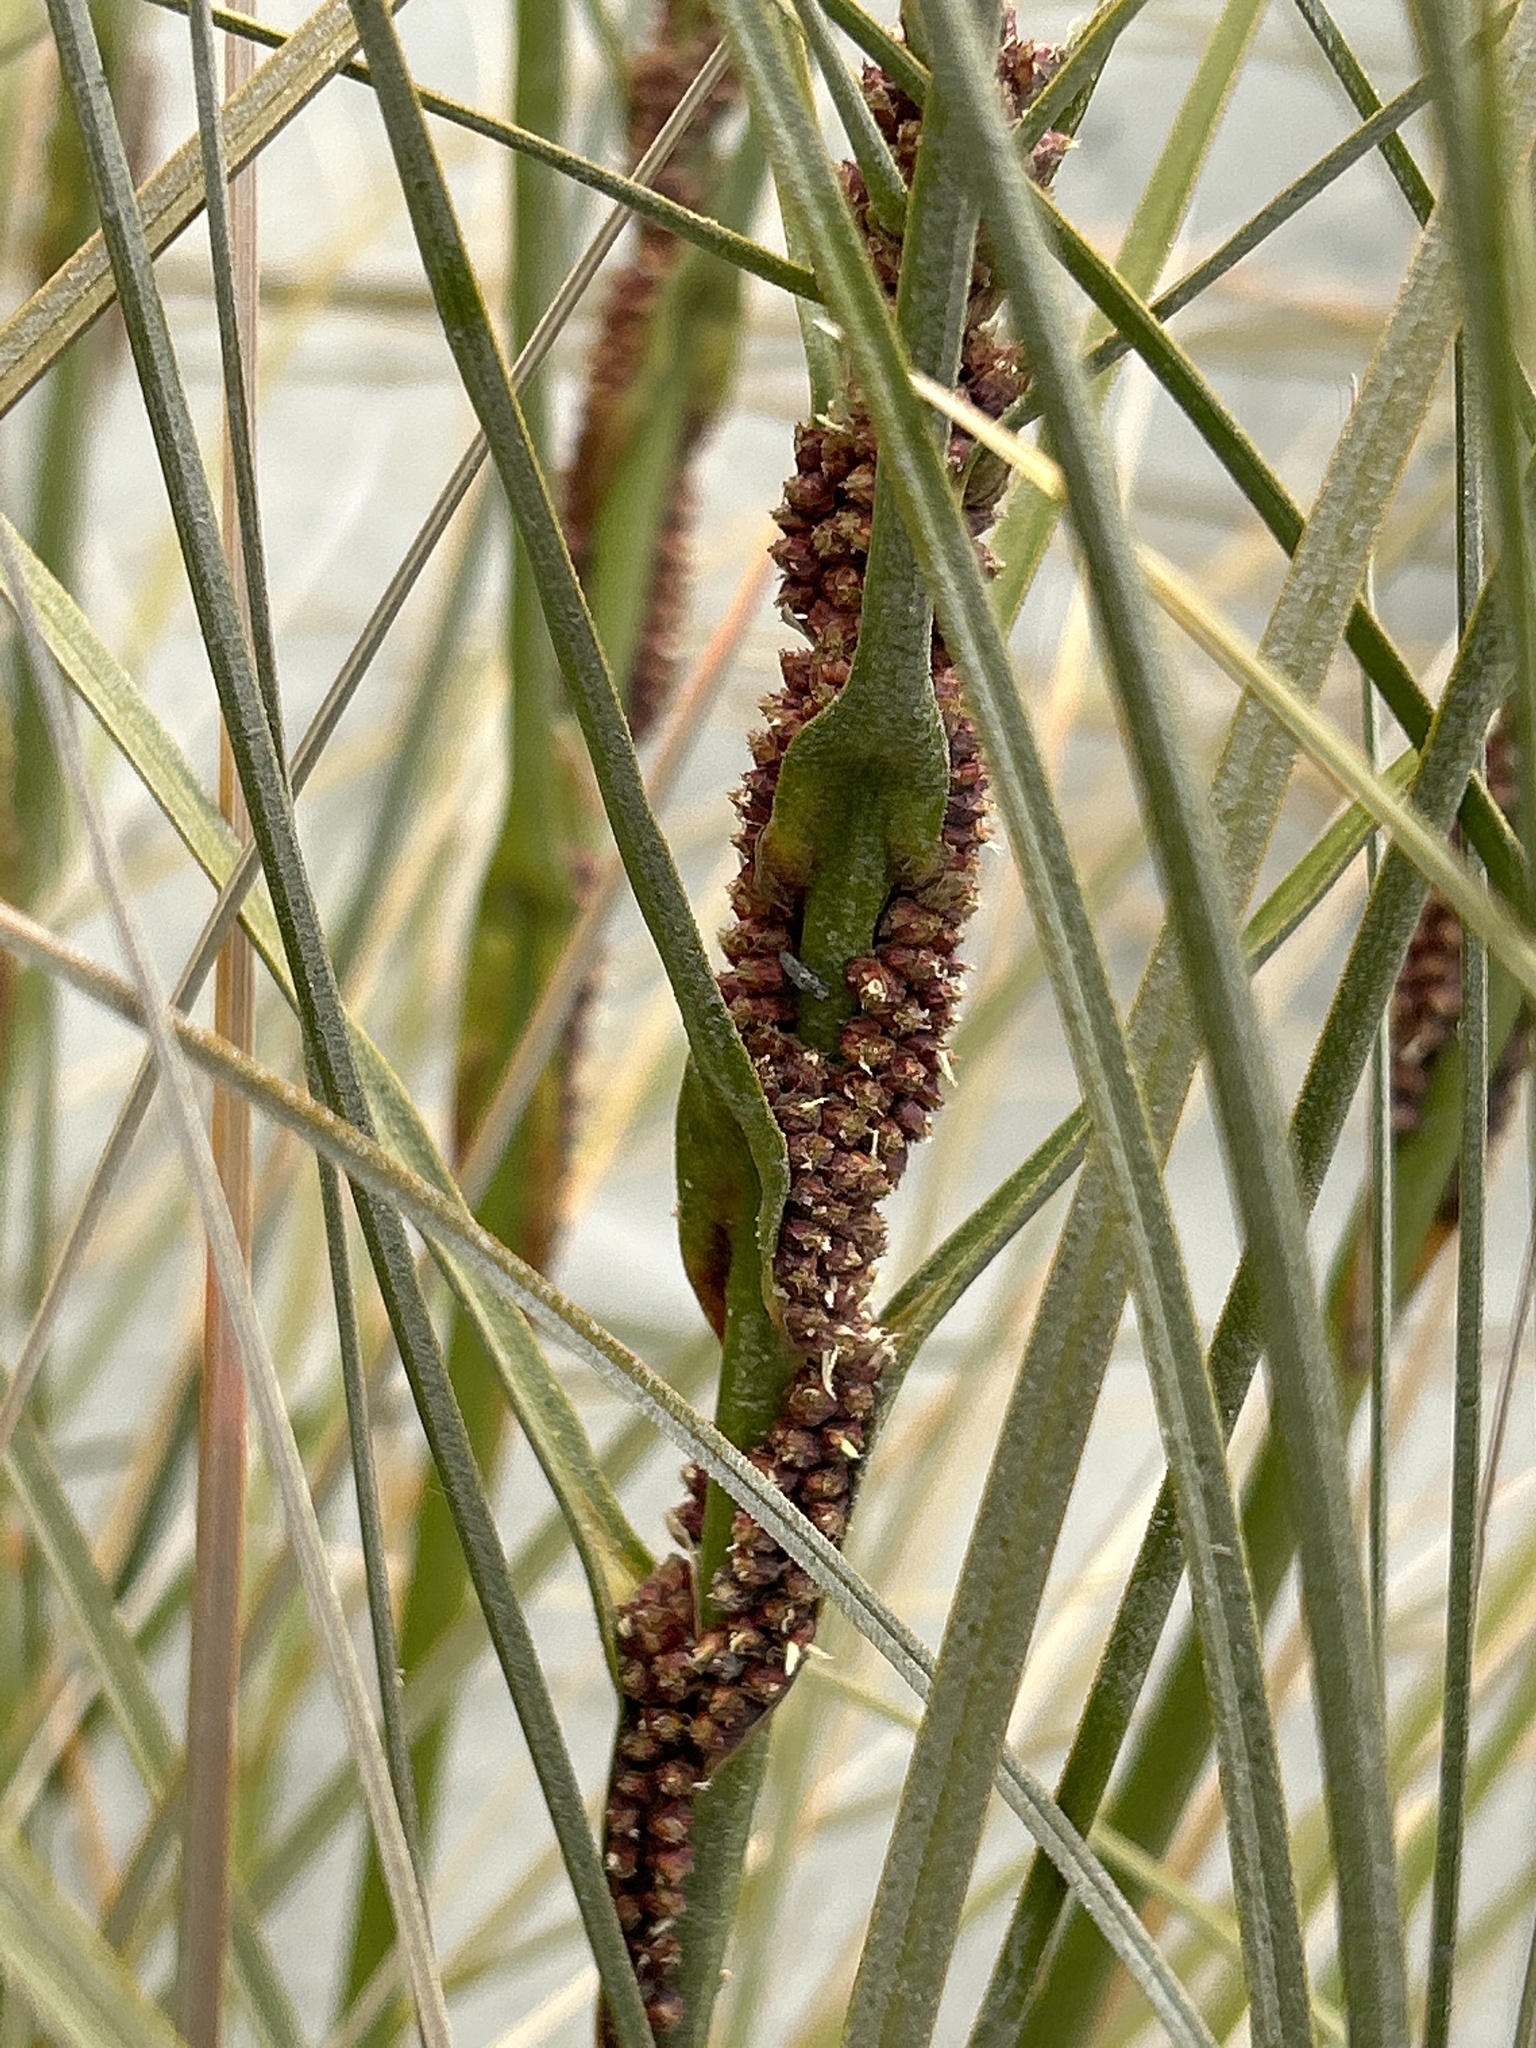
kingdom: Plantae
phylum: Tracheophyta
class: Liliopsida
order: Poales
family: Cyperaceae
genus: Ficinia
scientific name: Ficinia spiralis
